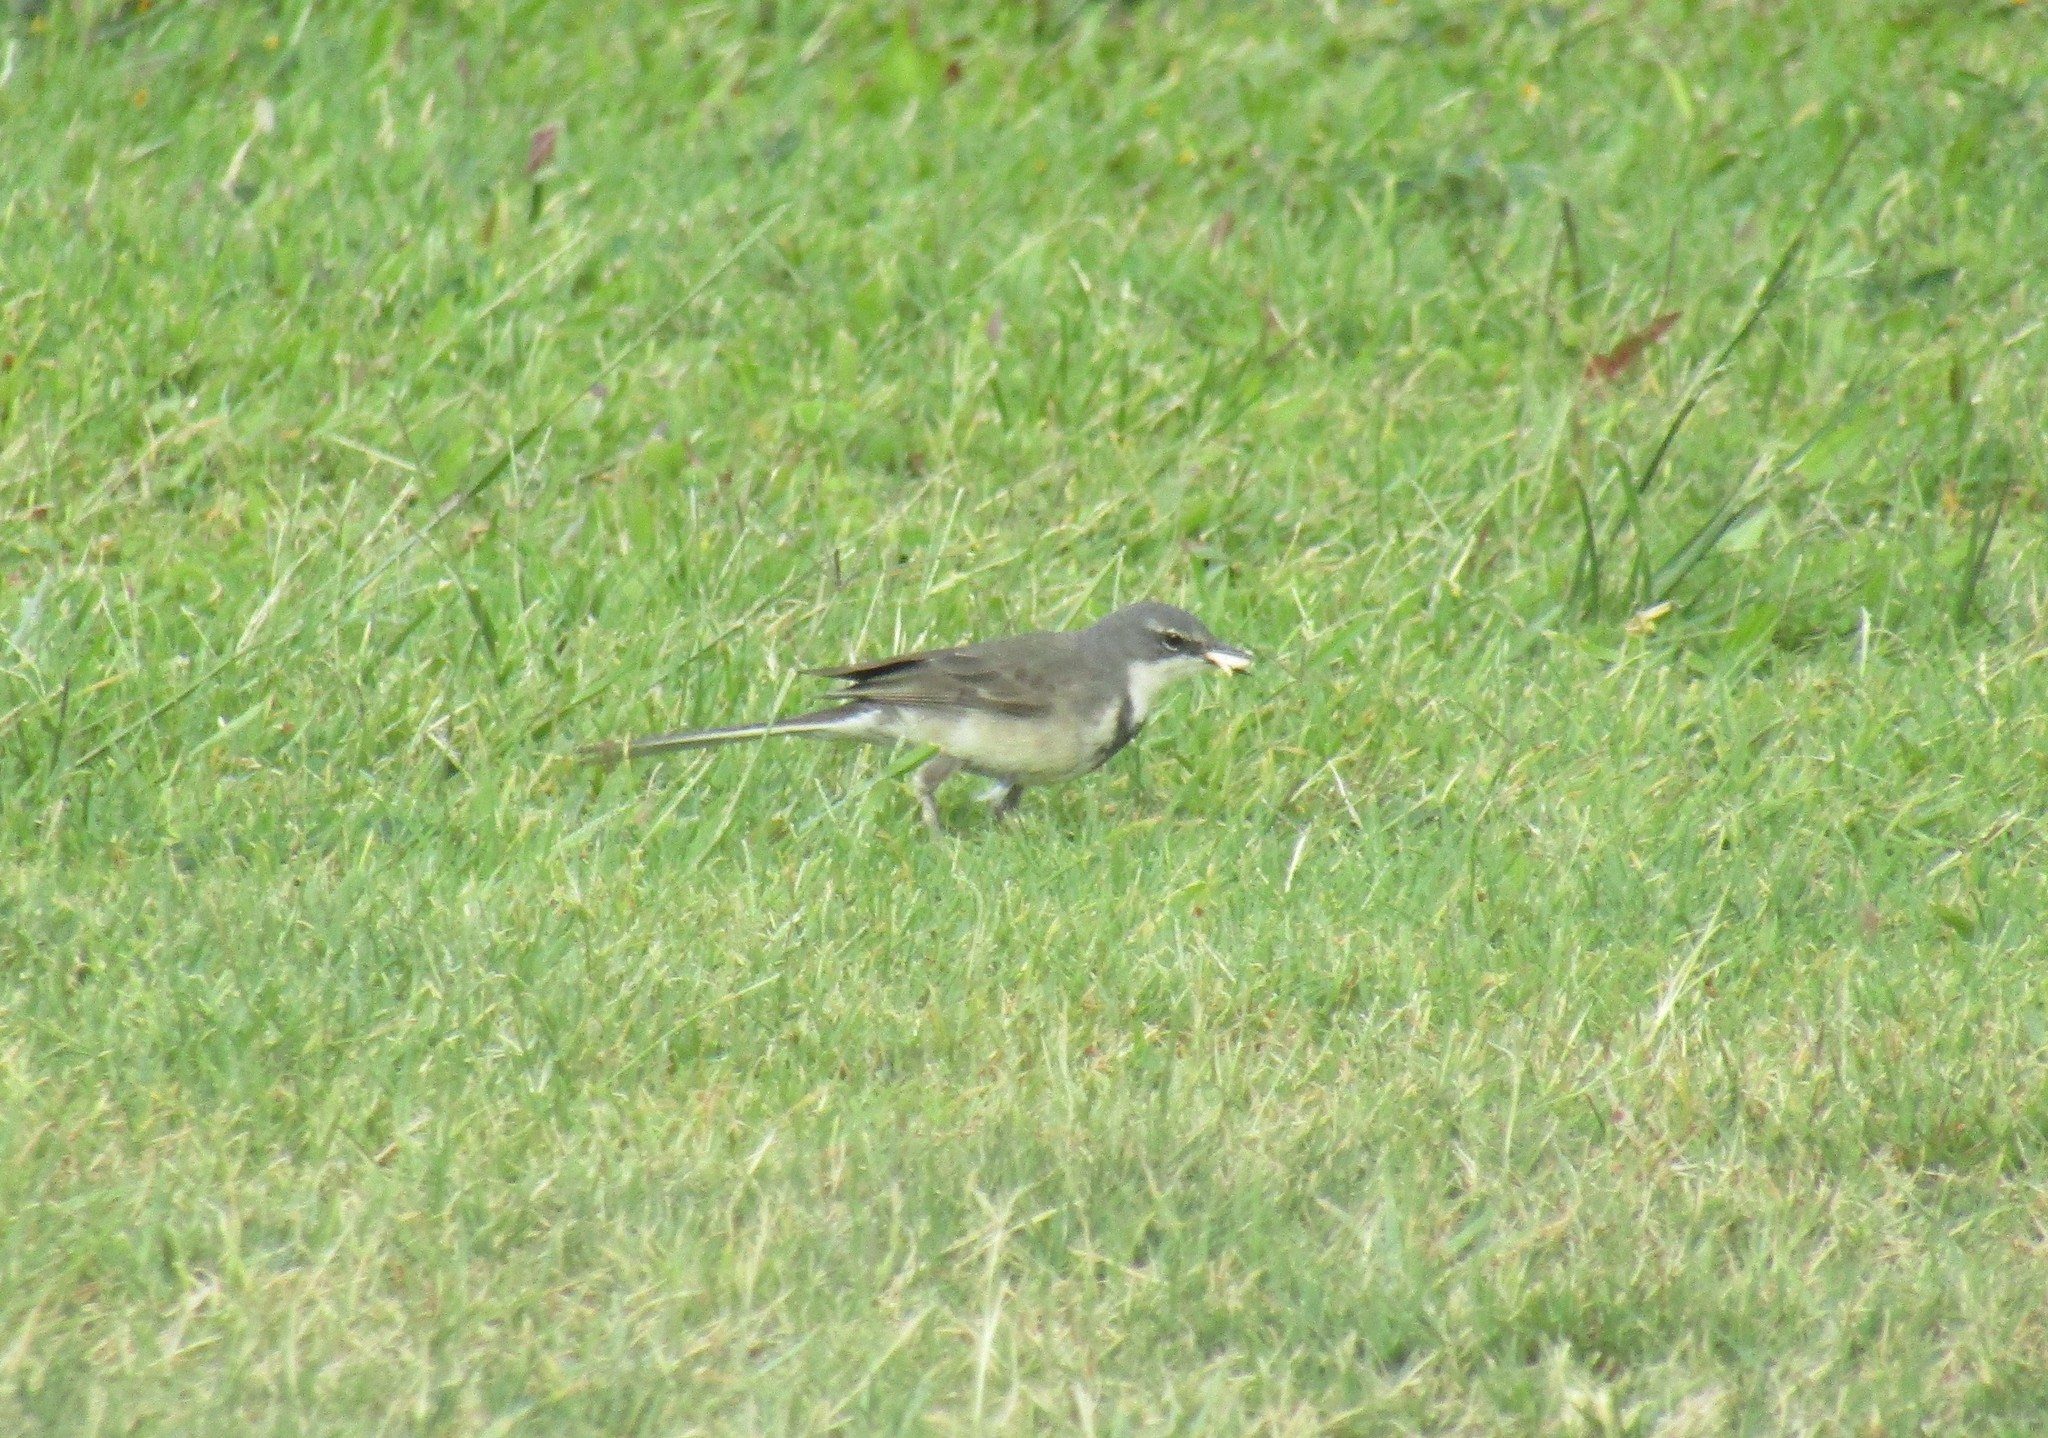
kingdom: Animalia
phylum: Chordata
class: Aves
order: Passeriformes
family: Motacillidae
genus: Motacilla
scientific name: Motacilla capensis
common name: Cape wagtail
